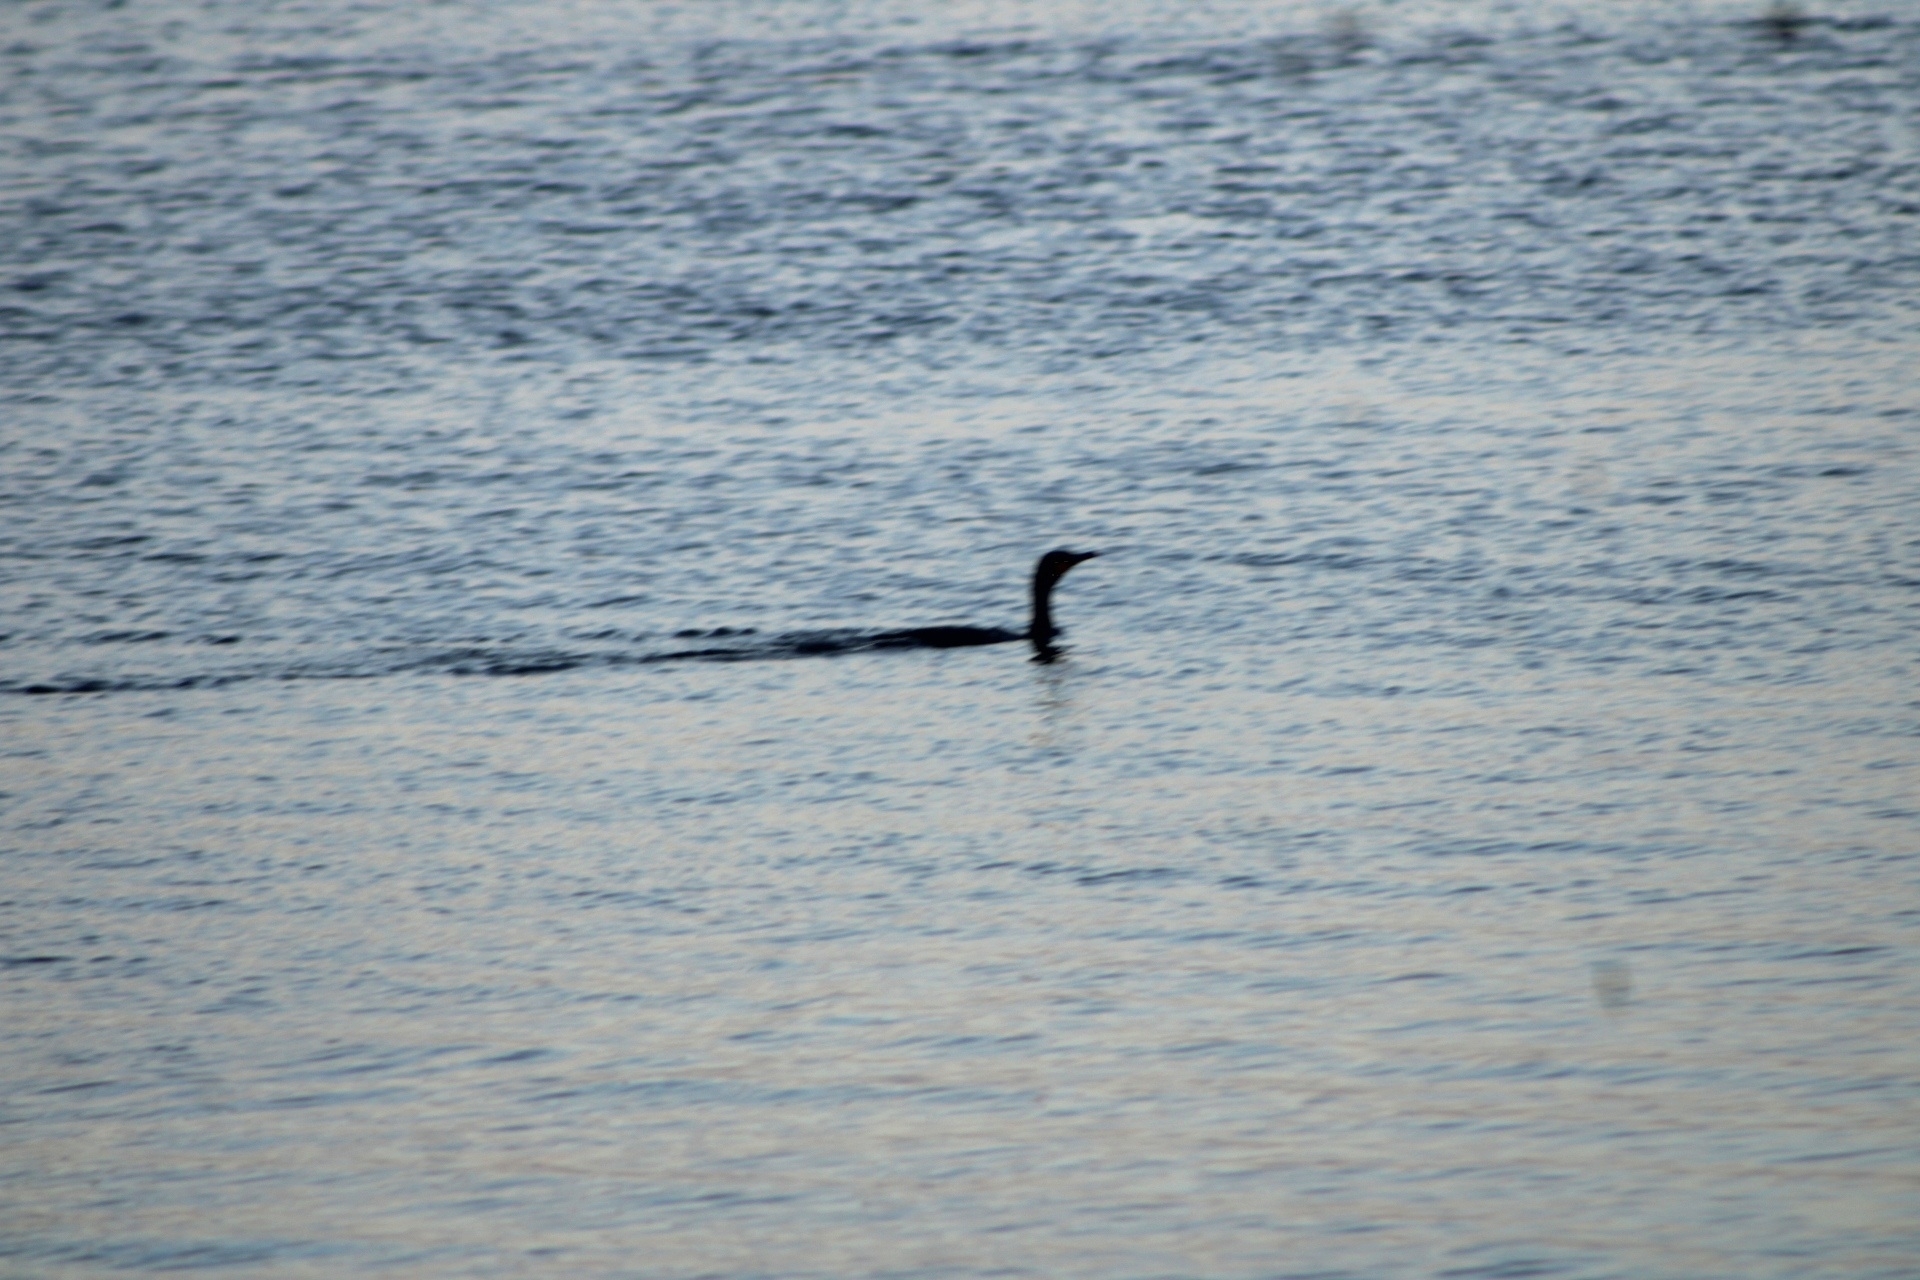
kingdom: Animalia
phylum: Chordata
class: Aves
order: Suliformes
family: Phalacrocoracidae
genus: Phalacrocorax
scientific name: Phalacrocorax auritus
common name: Double-crested cormorant
